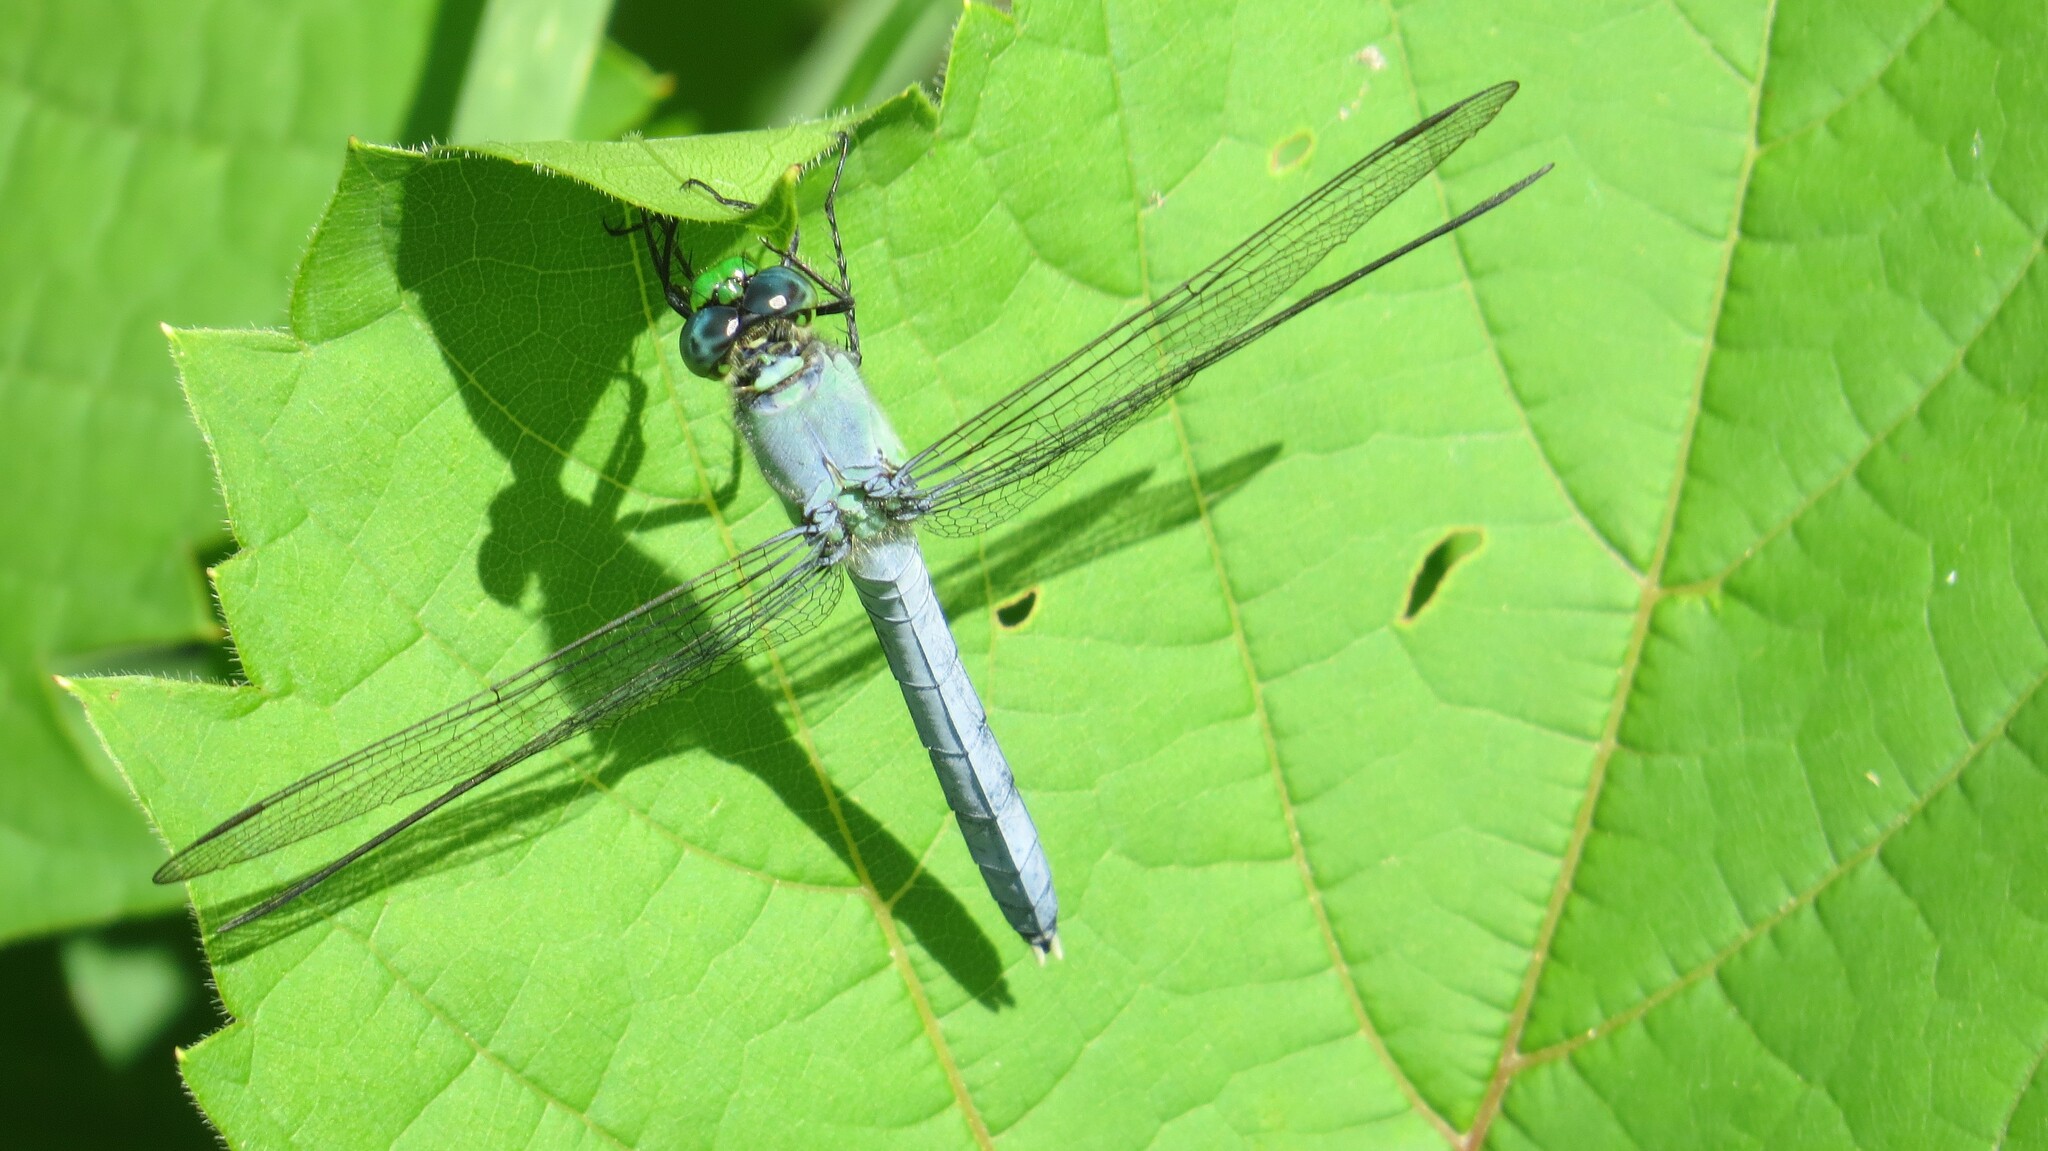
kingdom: Animalia
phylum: Arthropoda
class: Insecta
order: Odonata
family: Libellulidae
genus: Erythemis
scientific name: Erythemis simplicicollis
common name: Eastern pondhawk
